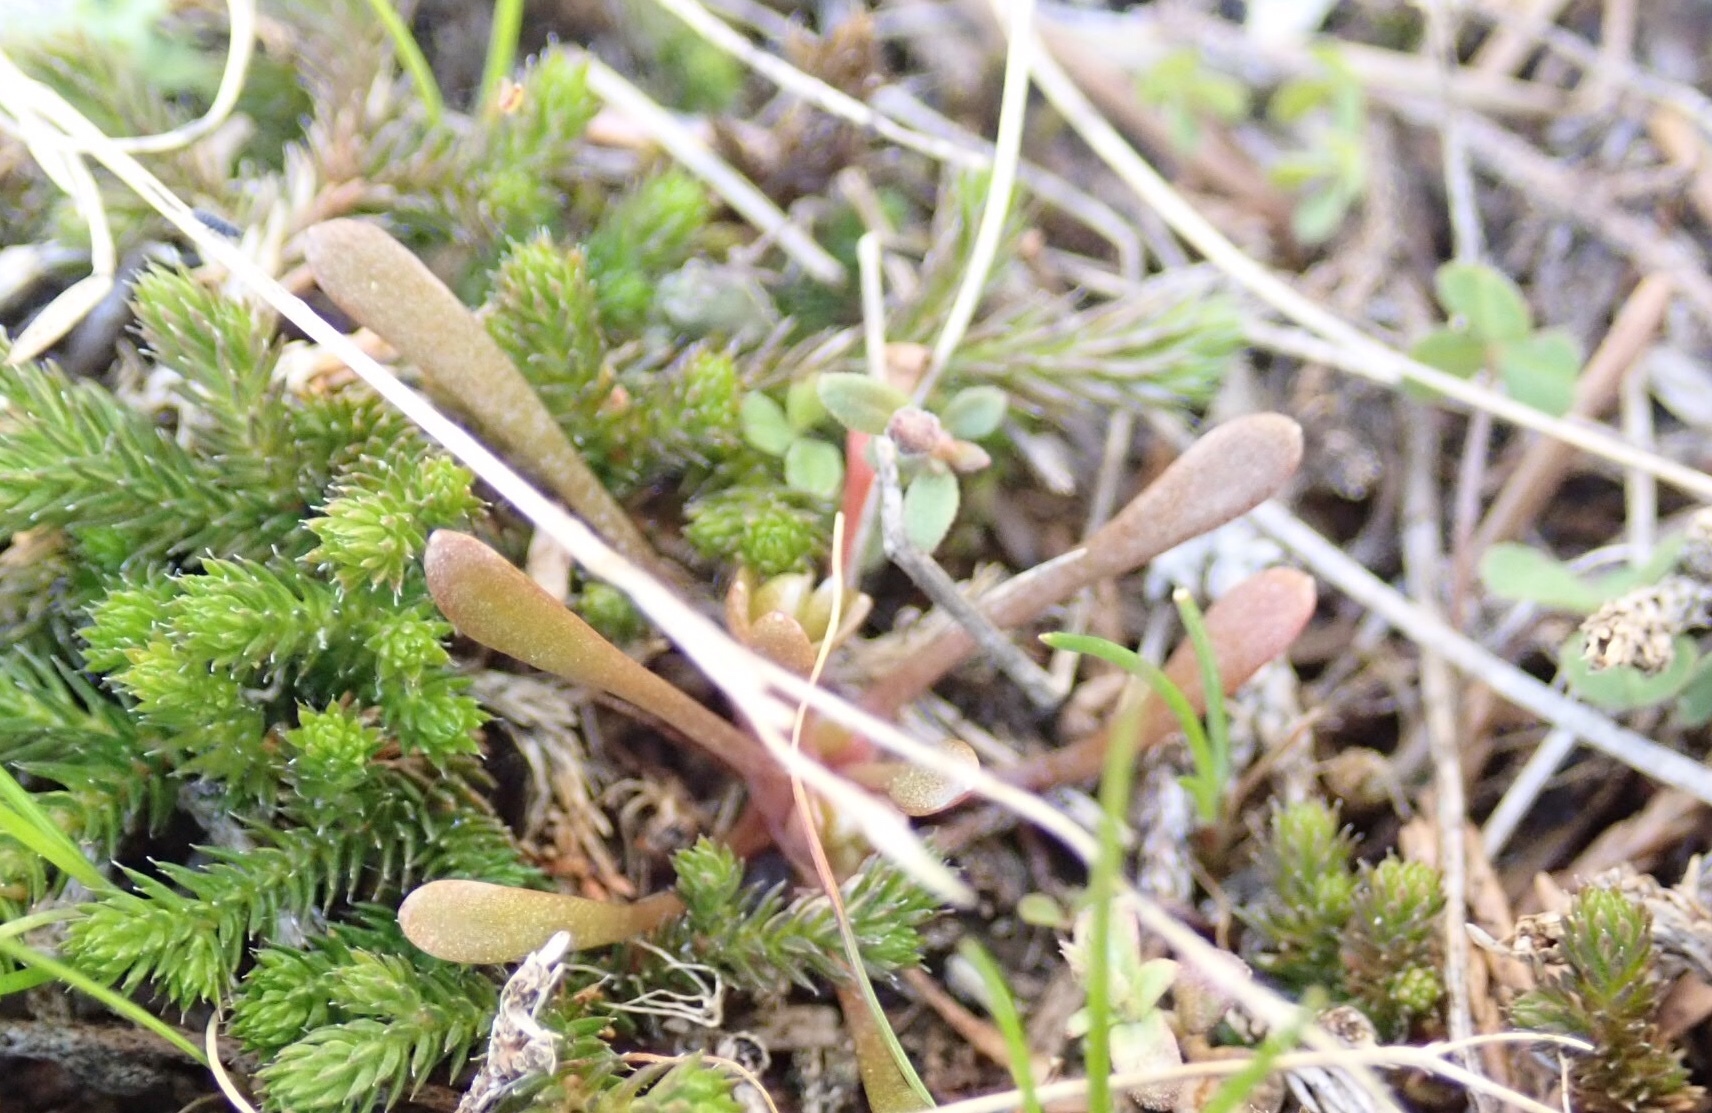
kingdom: Plantae
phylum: Tracheophyta
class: Lycopodiopsida
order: Selaginellales
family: Selaginellaceae
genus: Selaginella
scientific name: Selaginella wallacei
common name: Wallace's selaginella
